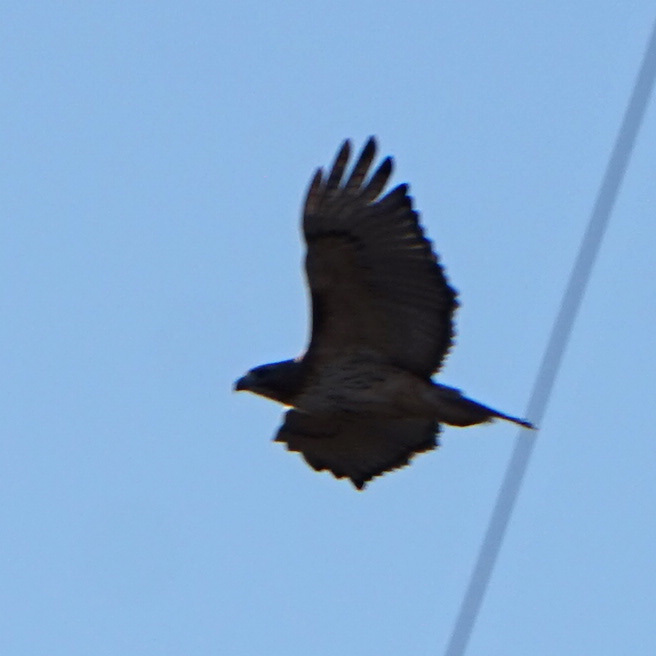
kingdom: Animalia
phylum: Chordata
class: Aves
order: Accipitriformes
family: Cathartidae
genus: Cathartes
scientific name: Cathartes aura
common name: Turkey vulture
